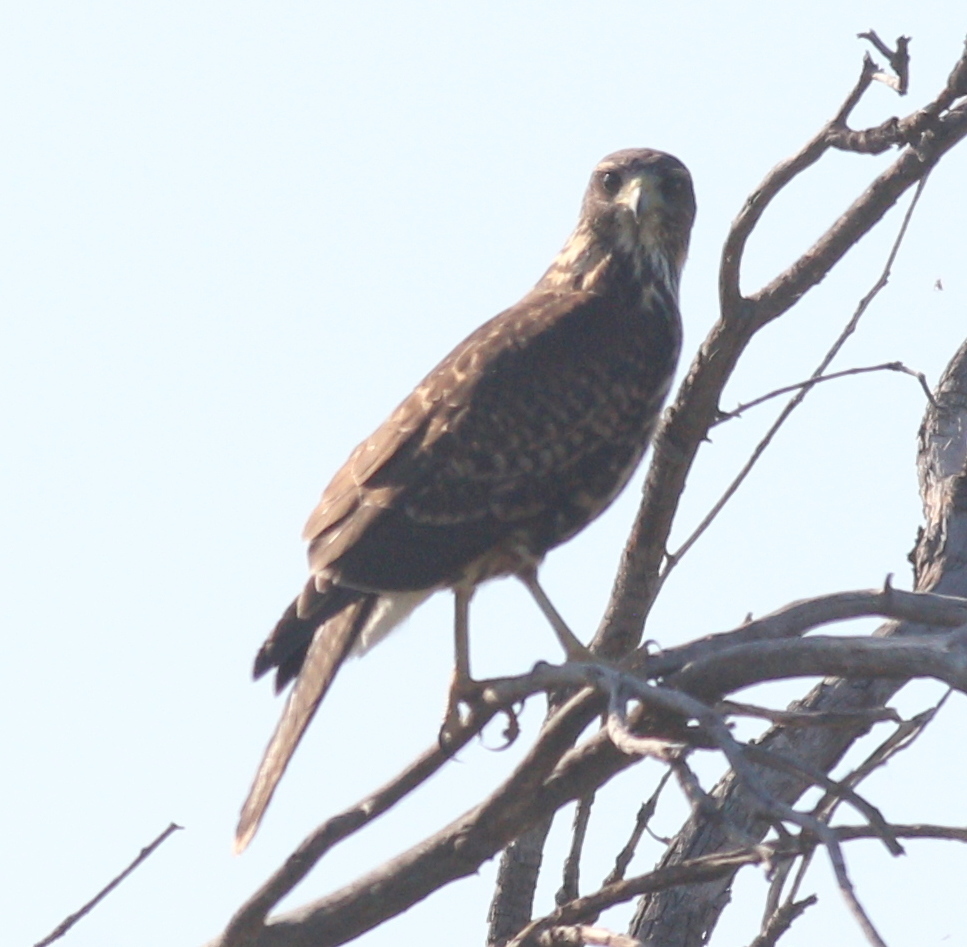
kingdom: Animalia
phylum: Chordata
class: Aves
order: Accipitriformes
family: Accipitridae
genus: Parabuteo
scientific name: Parabuteo unicinctus
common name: Harris's hawk
